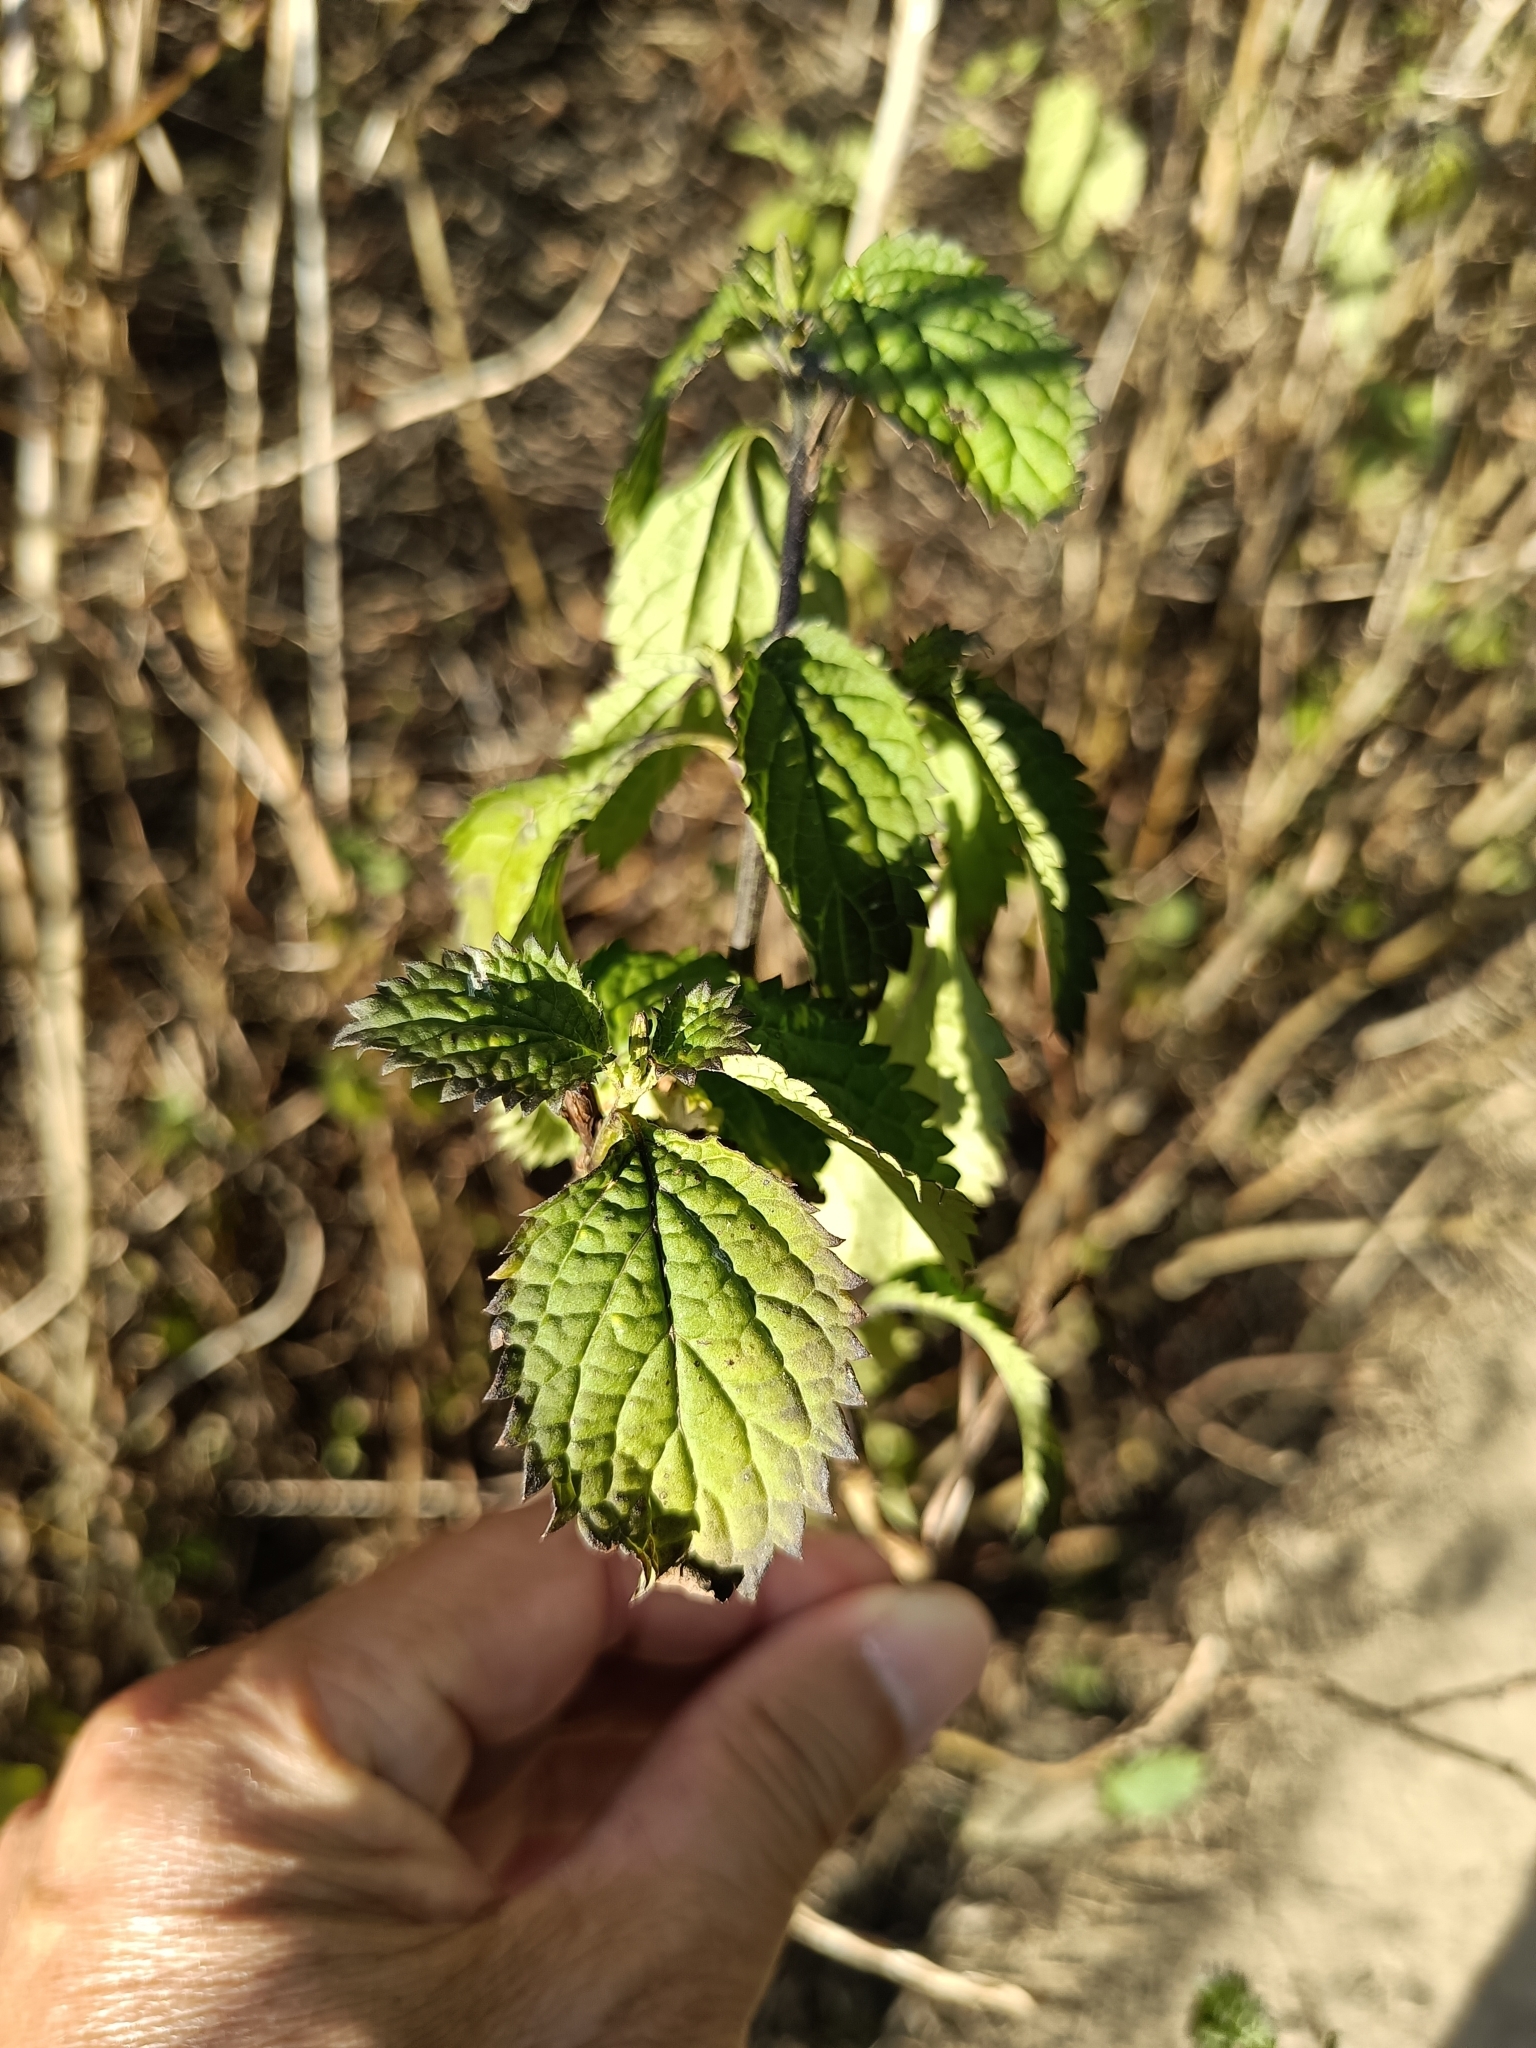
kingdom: Plantae
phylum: Tracheophyta
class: Magnoliopsida
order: Lamiales
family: Verbenaceae
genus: Stachytarpheta
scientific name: Stachytarpheta urticifolia
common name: Nettleleaf velvetberry
